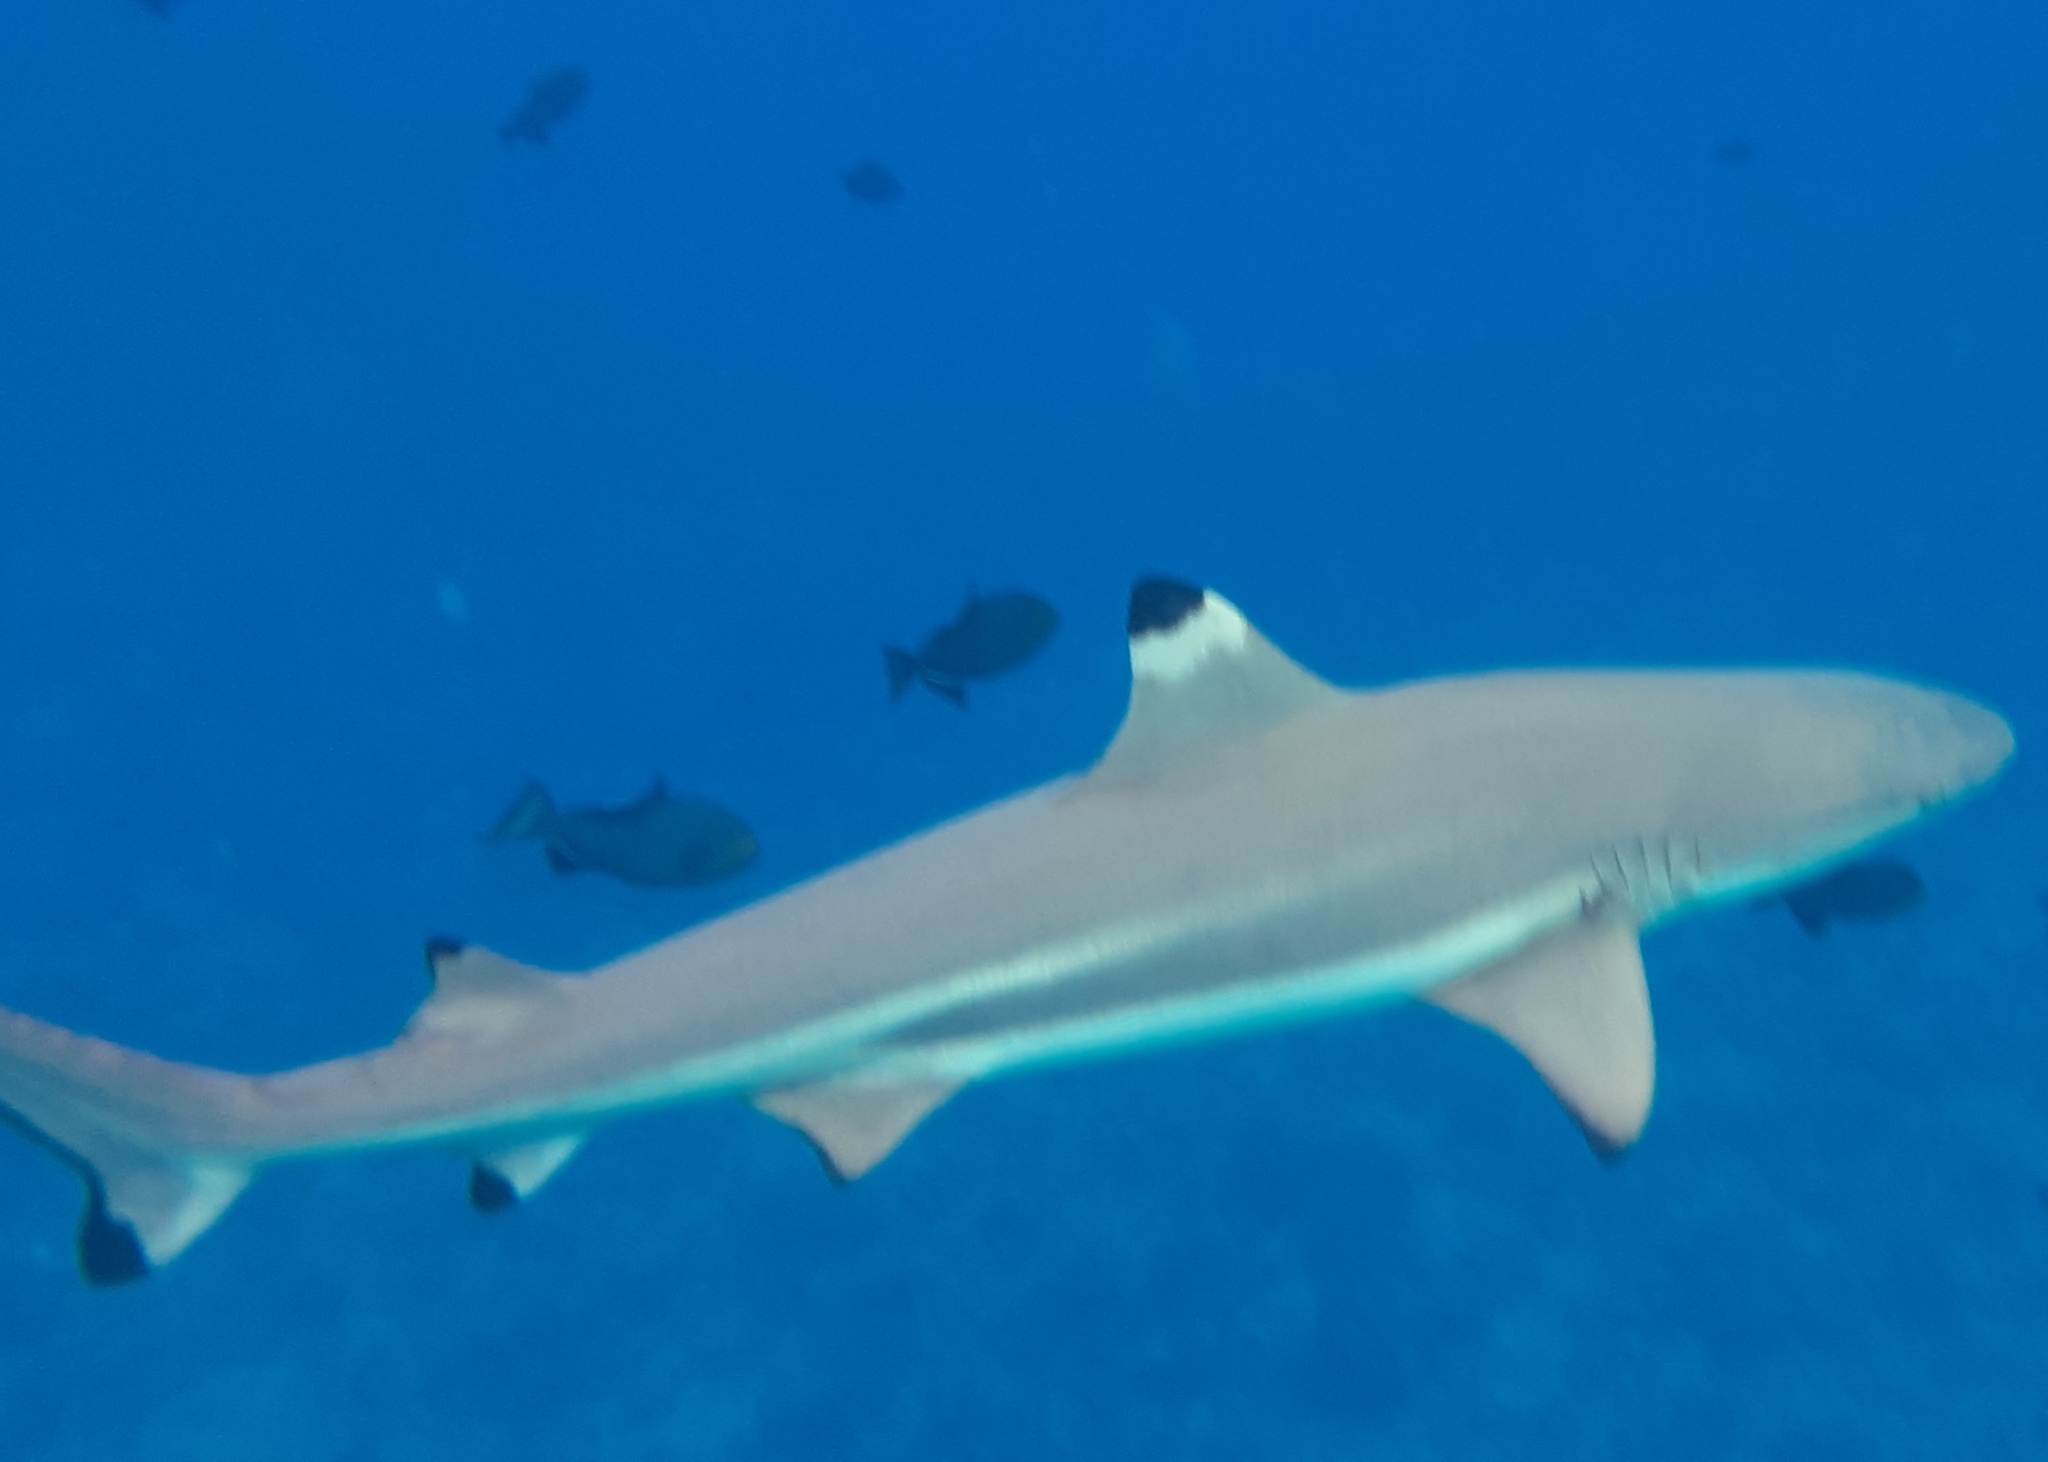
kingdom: Animalia
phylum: Chordata
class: Elasmobranchii
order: Carcharhiniformes
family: Carcharhinidae
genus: Carcharhinus
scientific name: Carcharhinus melanopterus
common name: Blacktip reef shark
